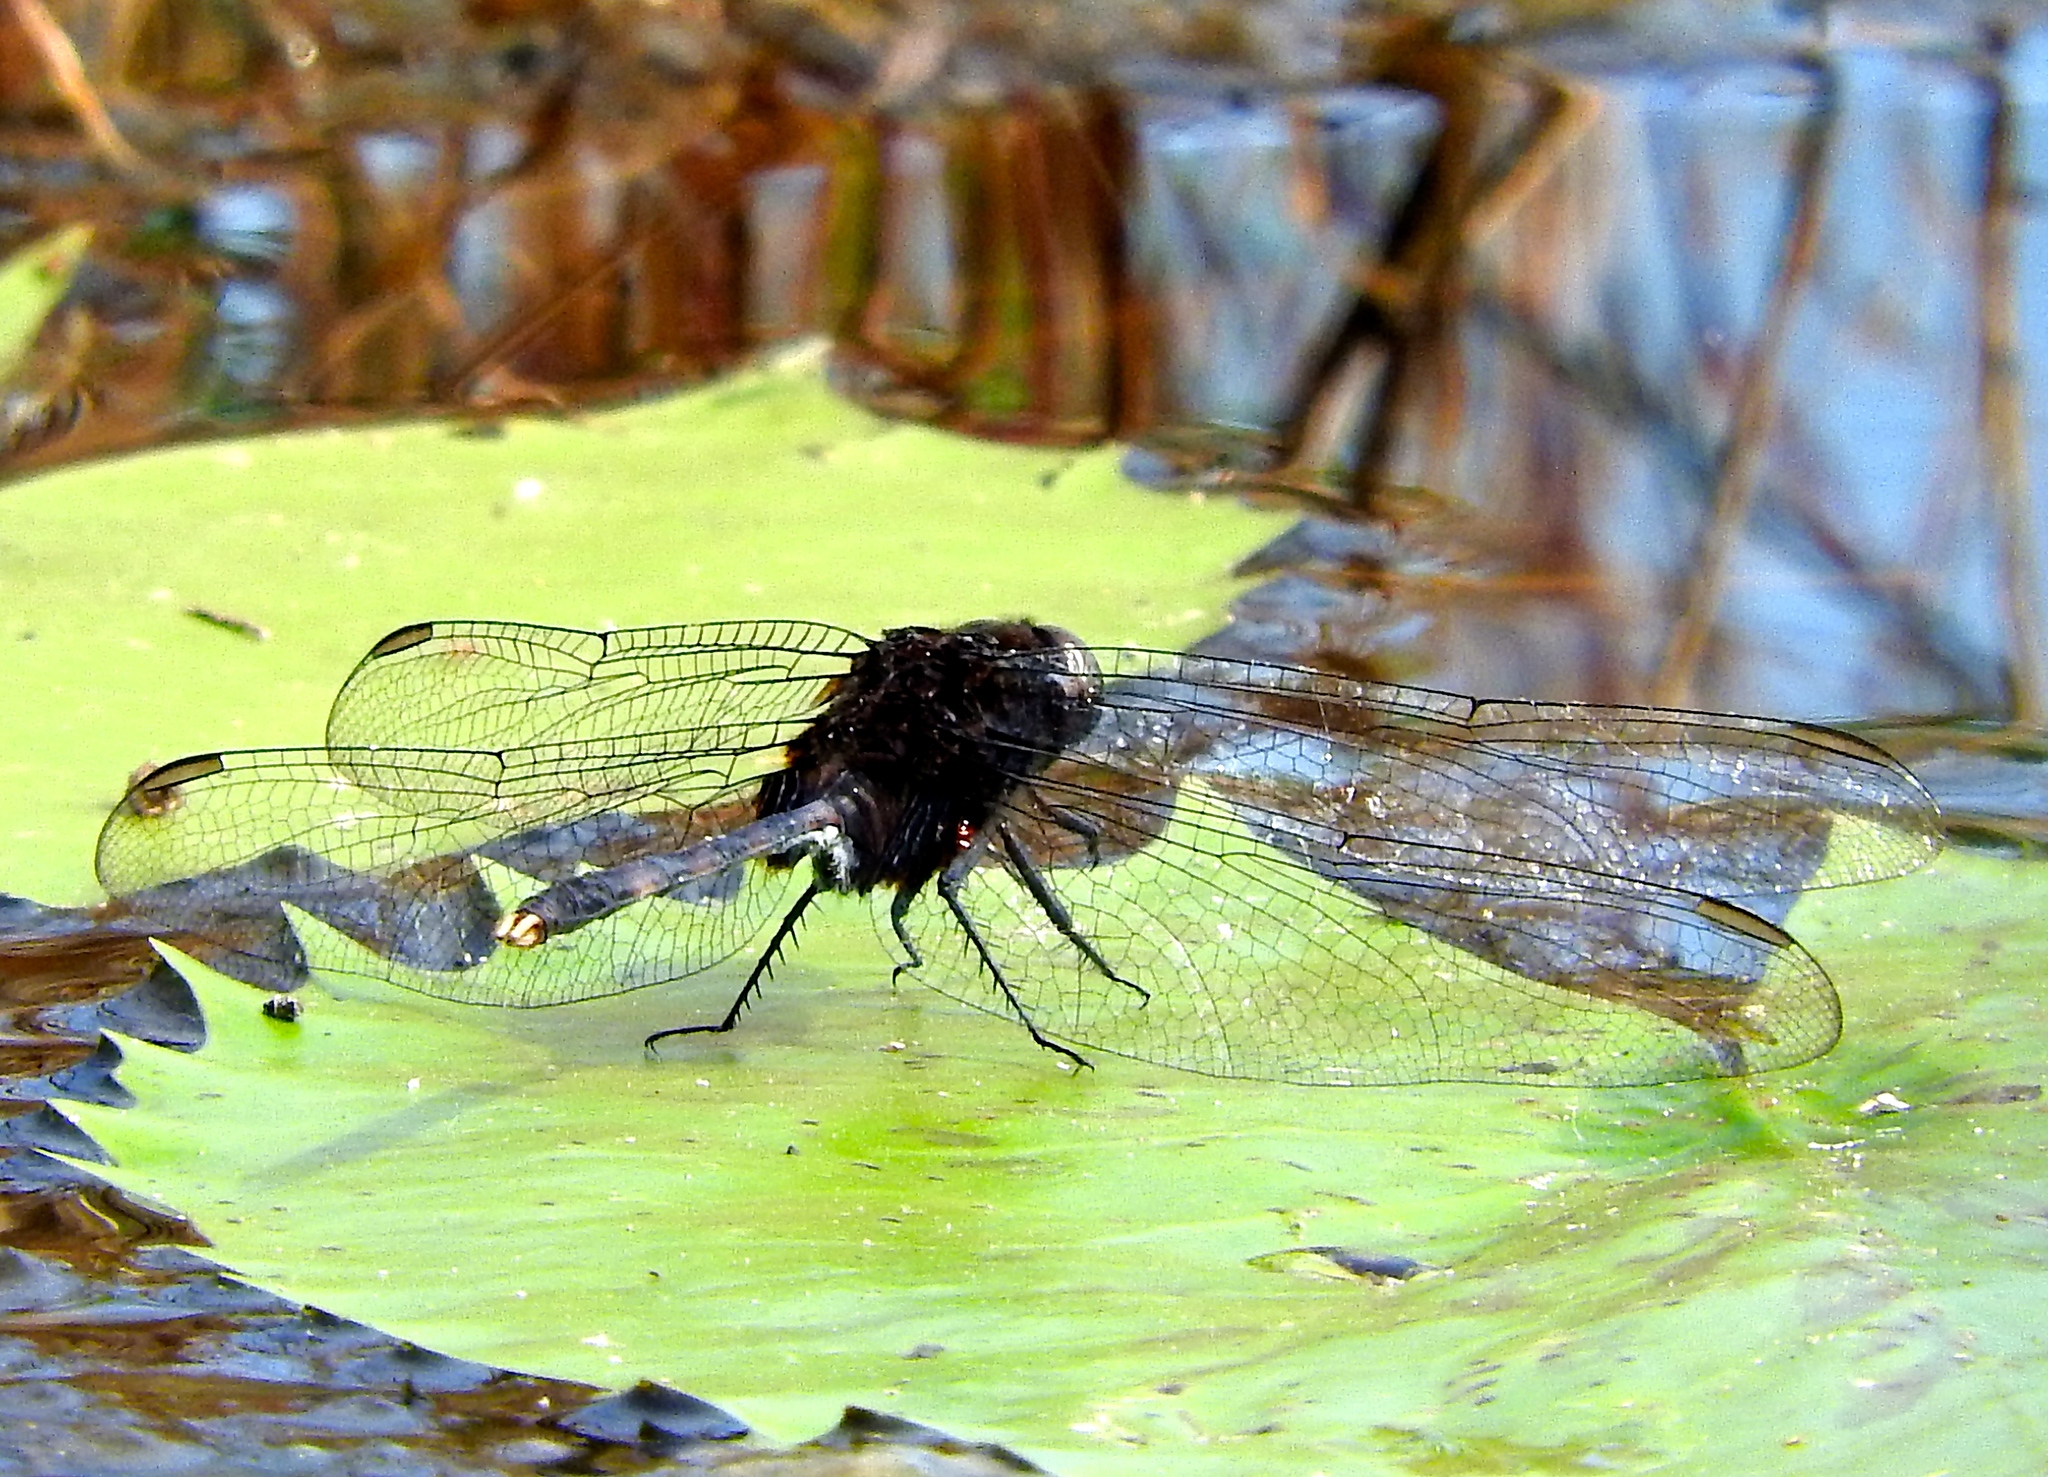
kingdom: Animalia
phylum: Arthropoda
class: Insecta
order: Odonata
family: Libellulidae
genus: Erythemis
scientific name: Erythemis plebeja
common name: Pin-tailed pondhawk
